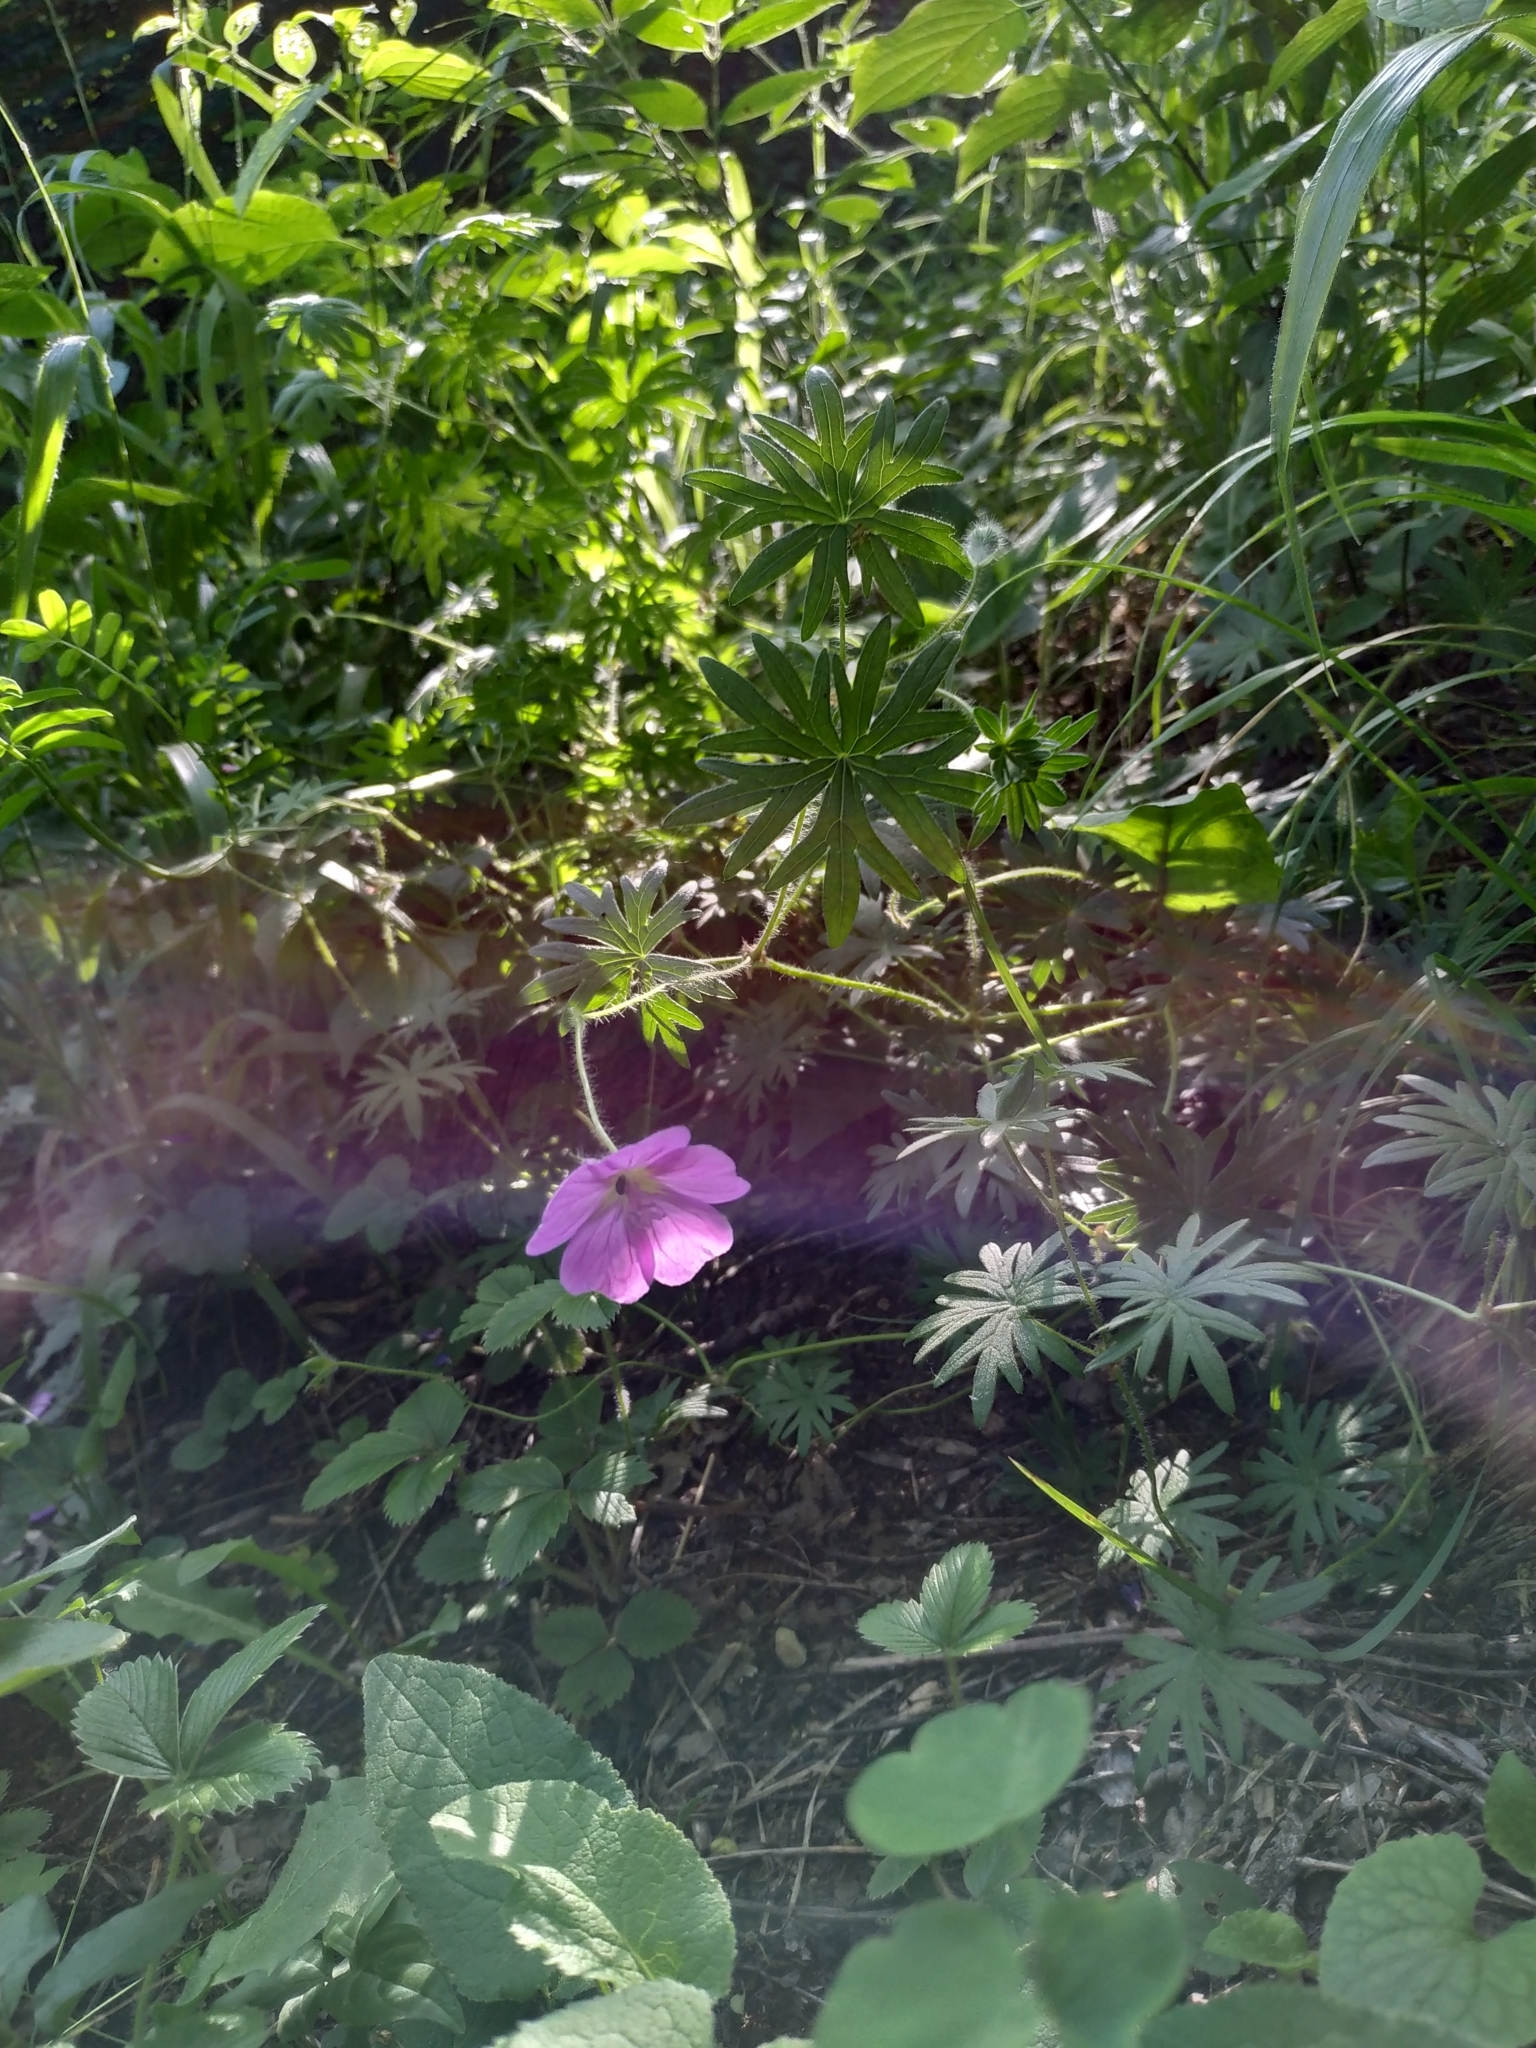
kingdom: Plantae
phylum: Tracheophyta
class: Magnoliopsida
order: Geraniales
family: Geraniaceae
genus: Geranium
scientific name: Geranium sanguineum
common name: Bloody crane's-bill
